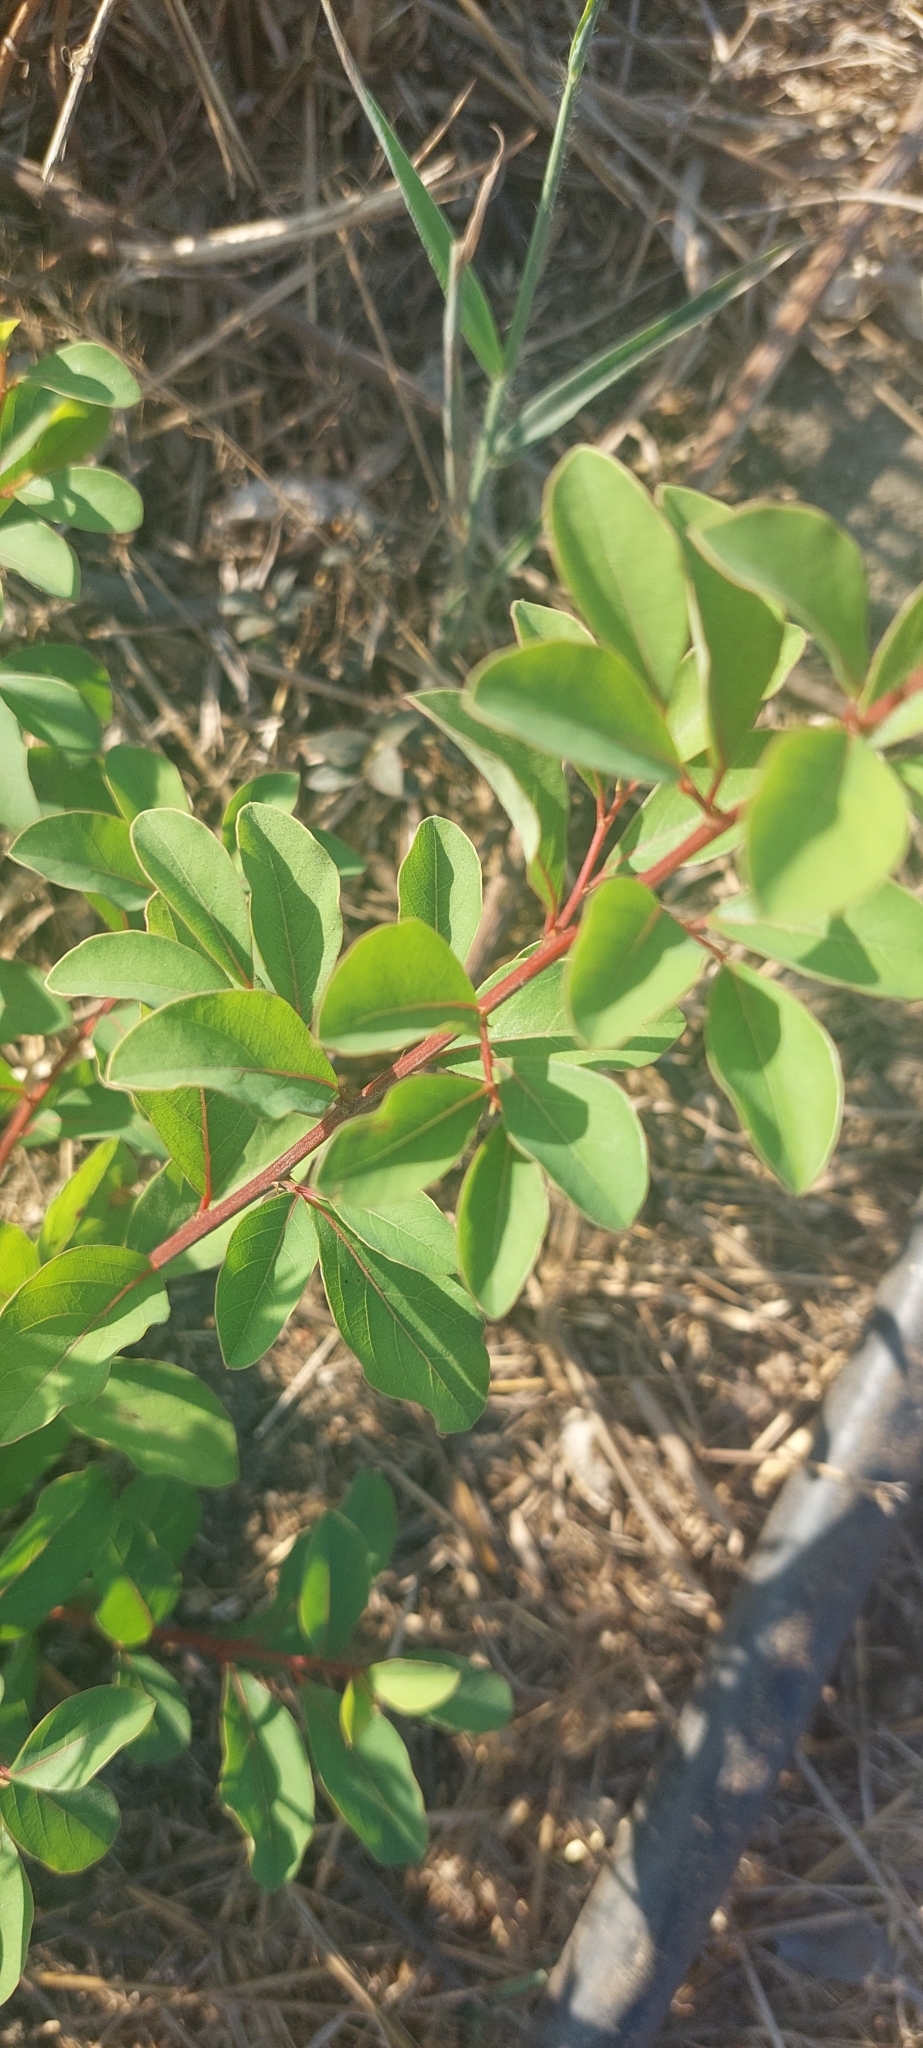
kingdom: Plantae
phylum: Tracheophyta
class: Magnoliopsida
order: Malpighiales
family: Phyllanthaceae
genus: Flueggea
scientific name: Flueggea virosa
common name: Common bushweed
